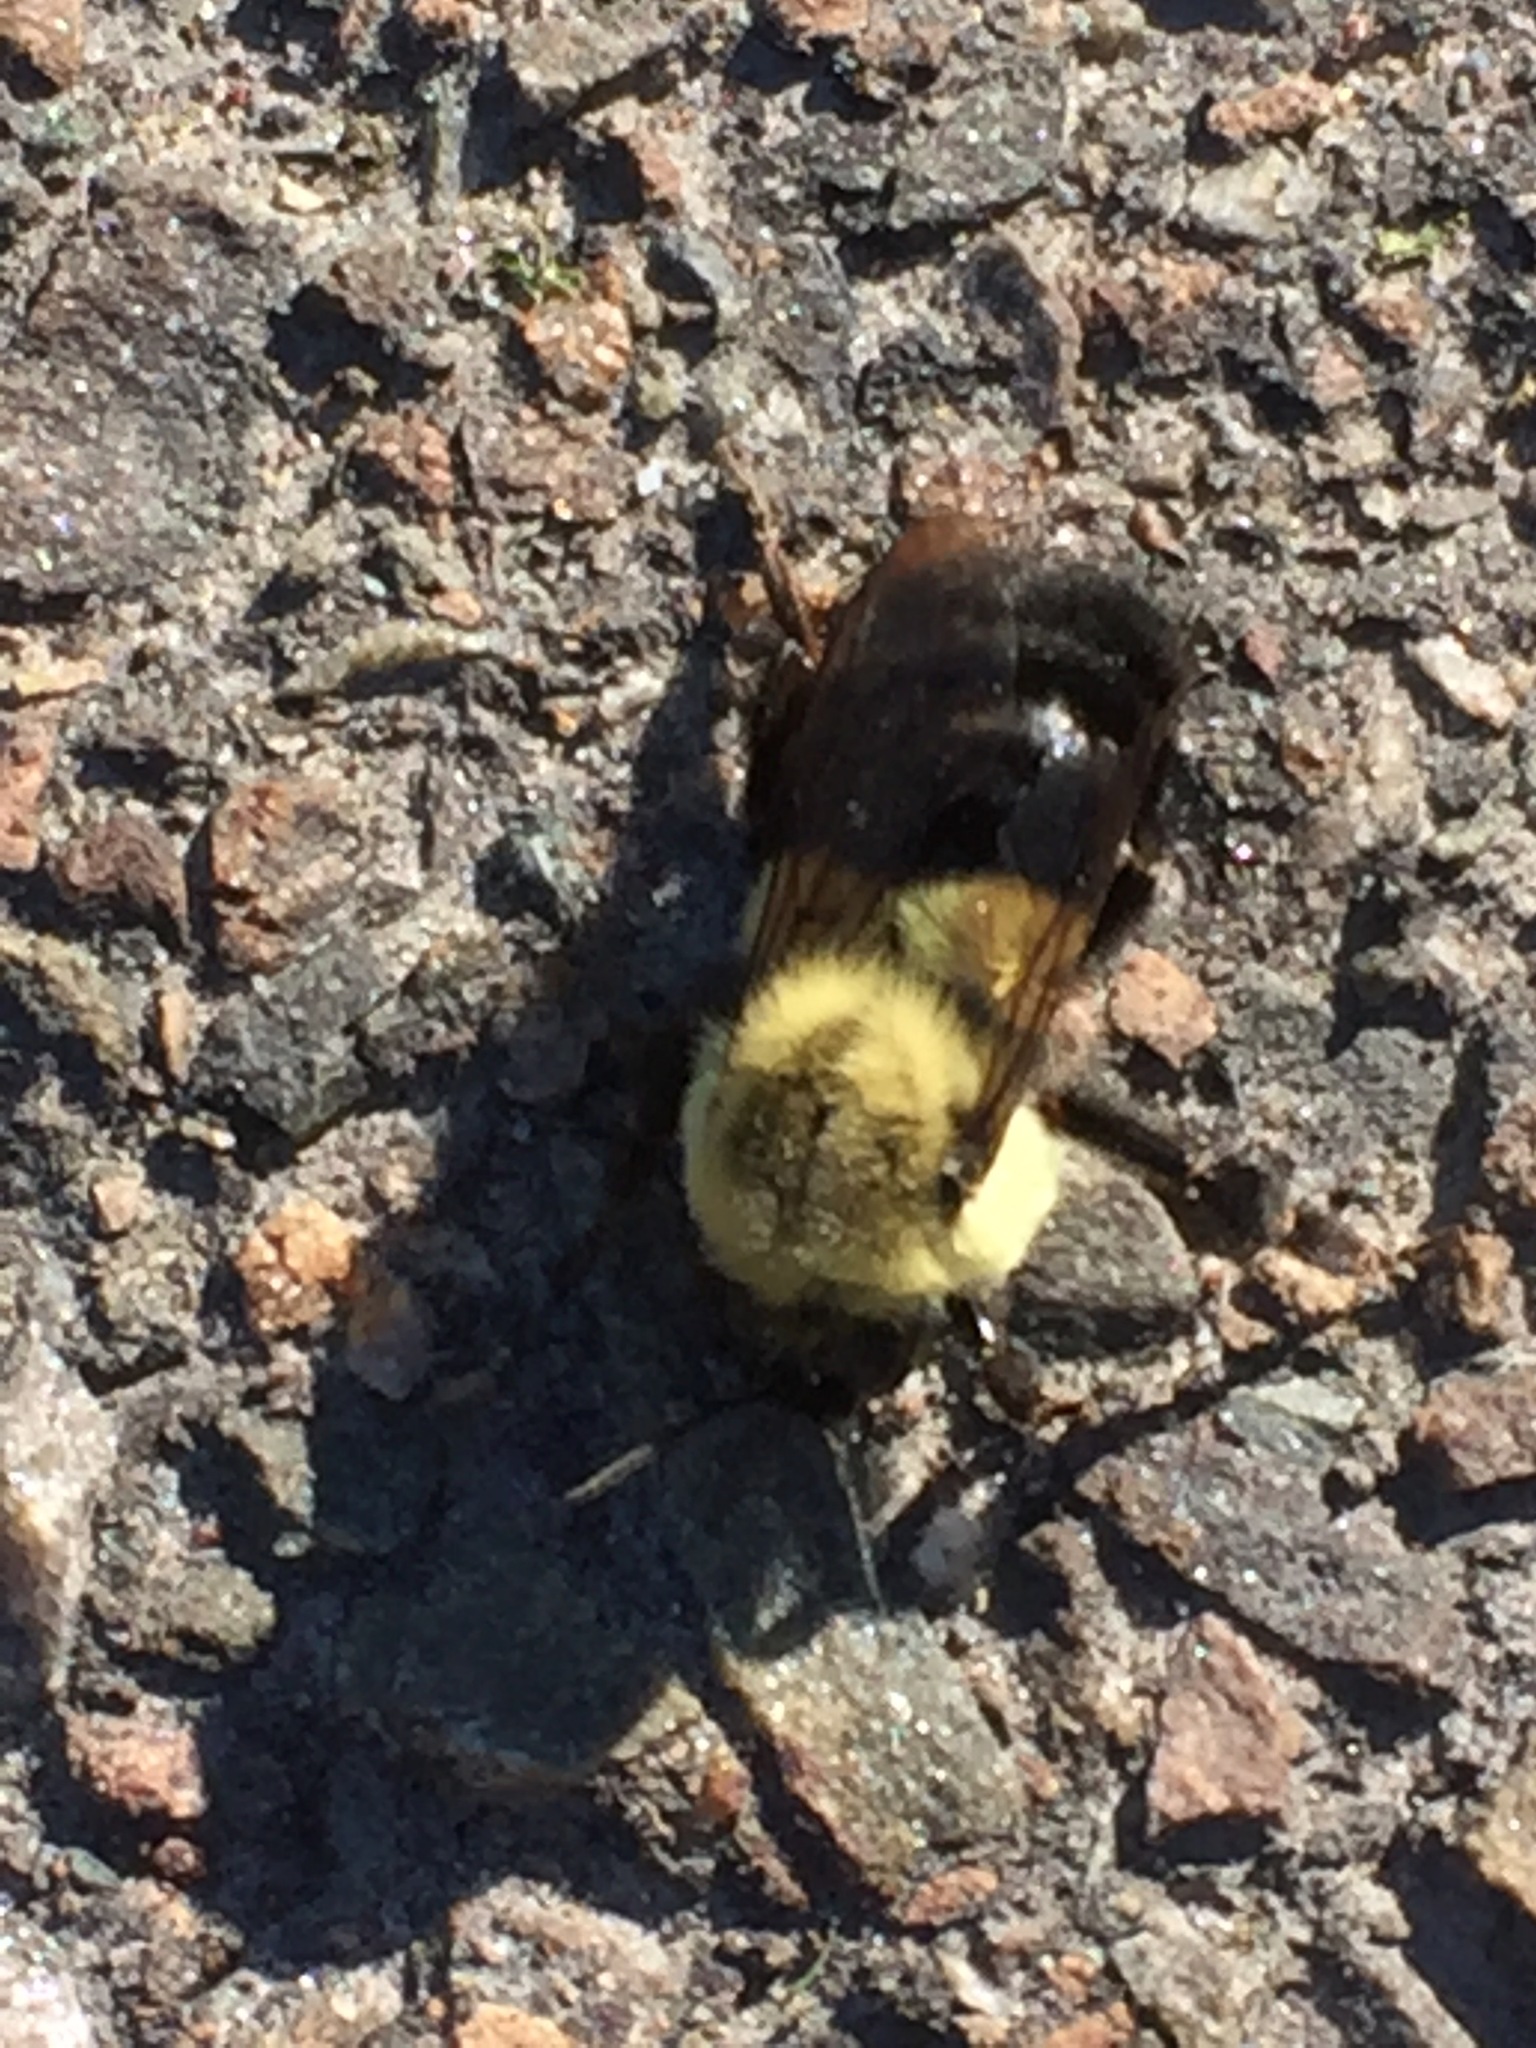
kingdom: Animalia
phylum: Arthropoda
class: Insecta
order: Hymenoptera
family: Apidae
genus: Bombus
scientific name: Bombus impatiens
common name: Common eastern bumble bee
